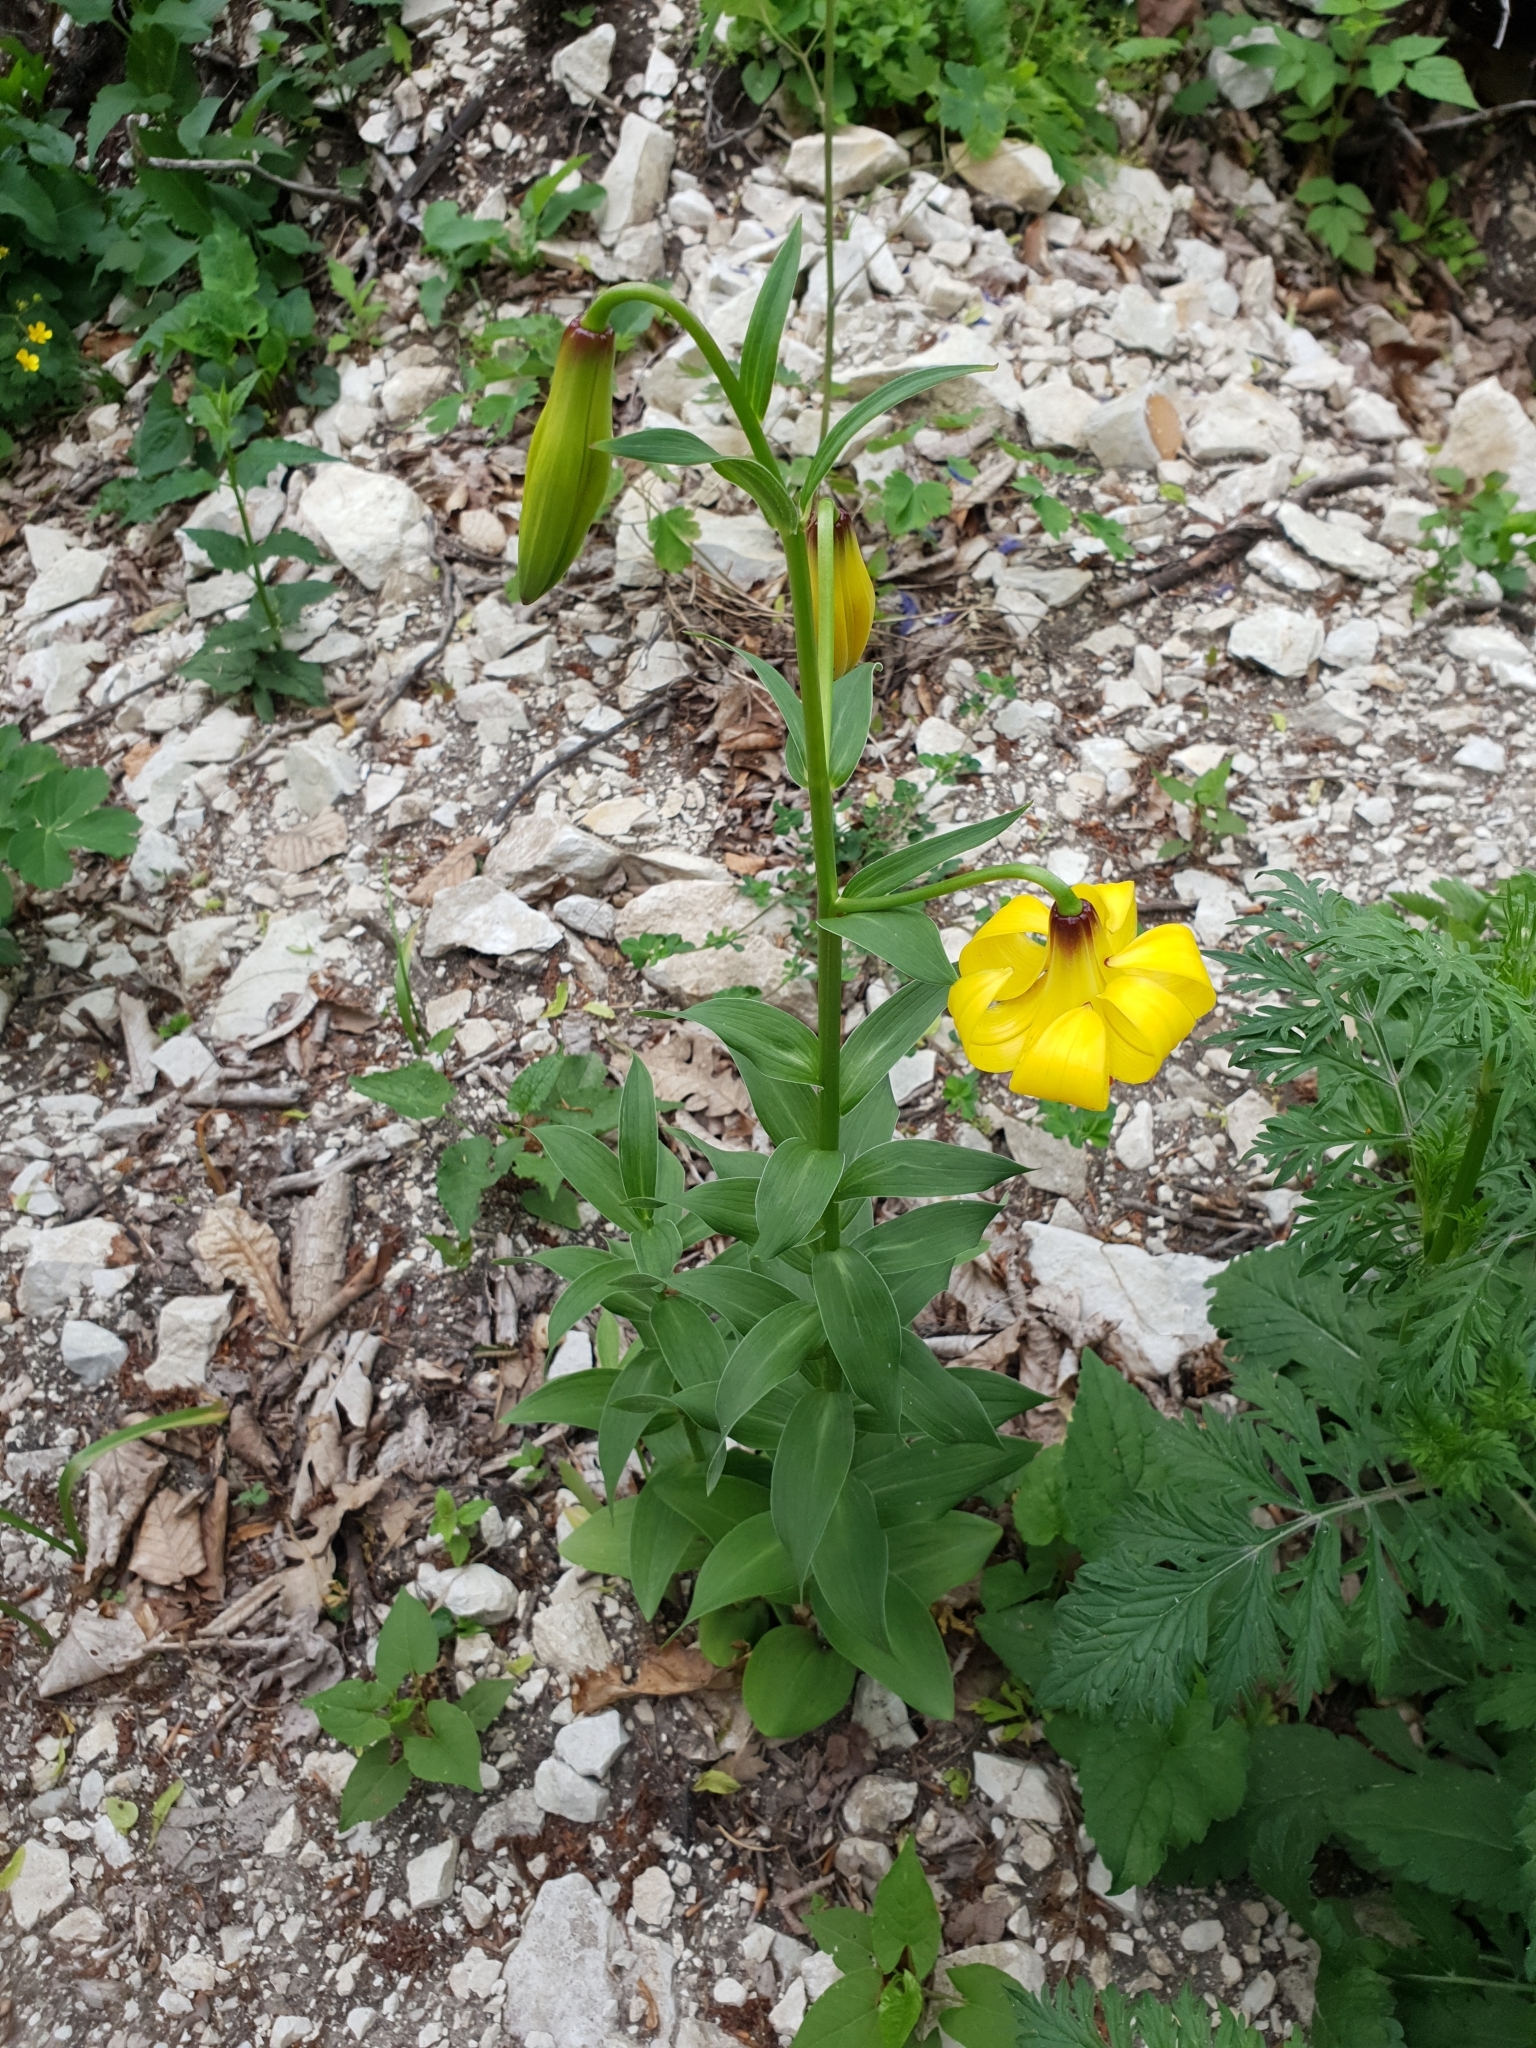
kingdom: Plantae
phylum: Tracheophyta
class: Liliopsida
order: Liliales
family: Liliaceae
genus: Lilium
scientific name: Lilium monadelphum
